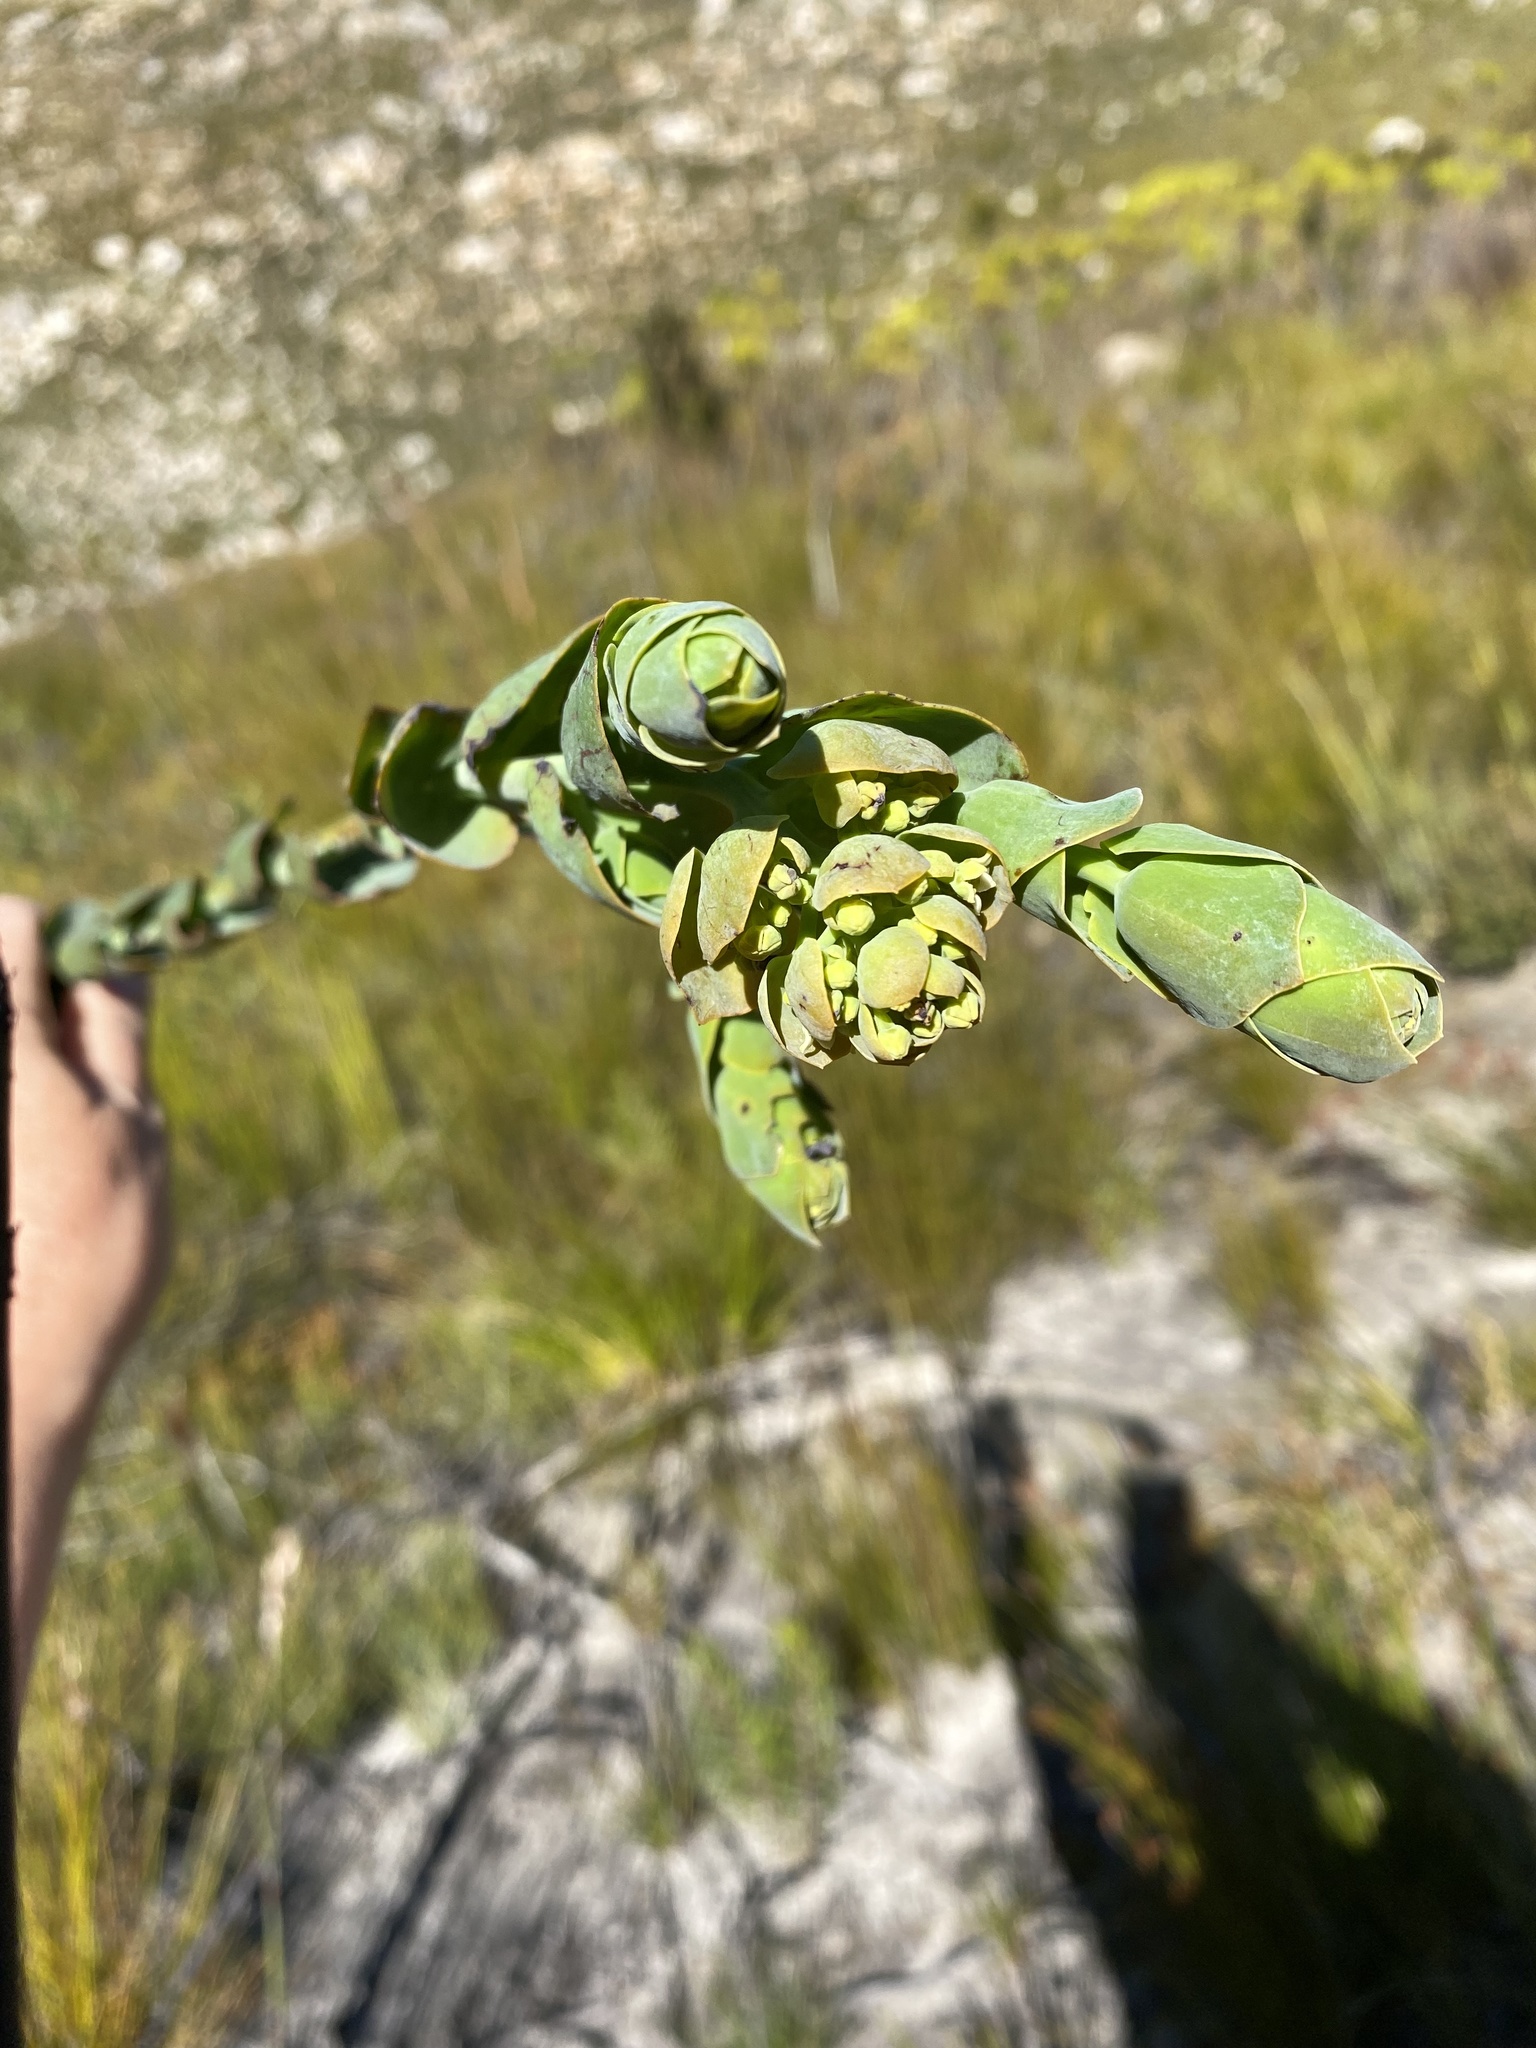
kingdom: Plantae
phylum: Tracheophyta
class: Magnoliopsida
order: Santalales
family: Thesiaceae
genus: Thesium
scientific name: Thesium euphorbioides
